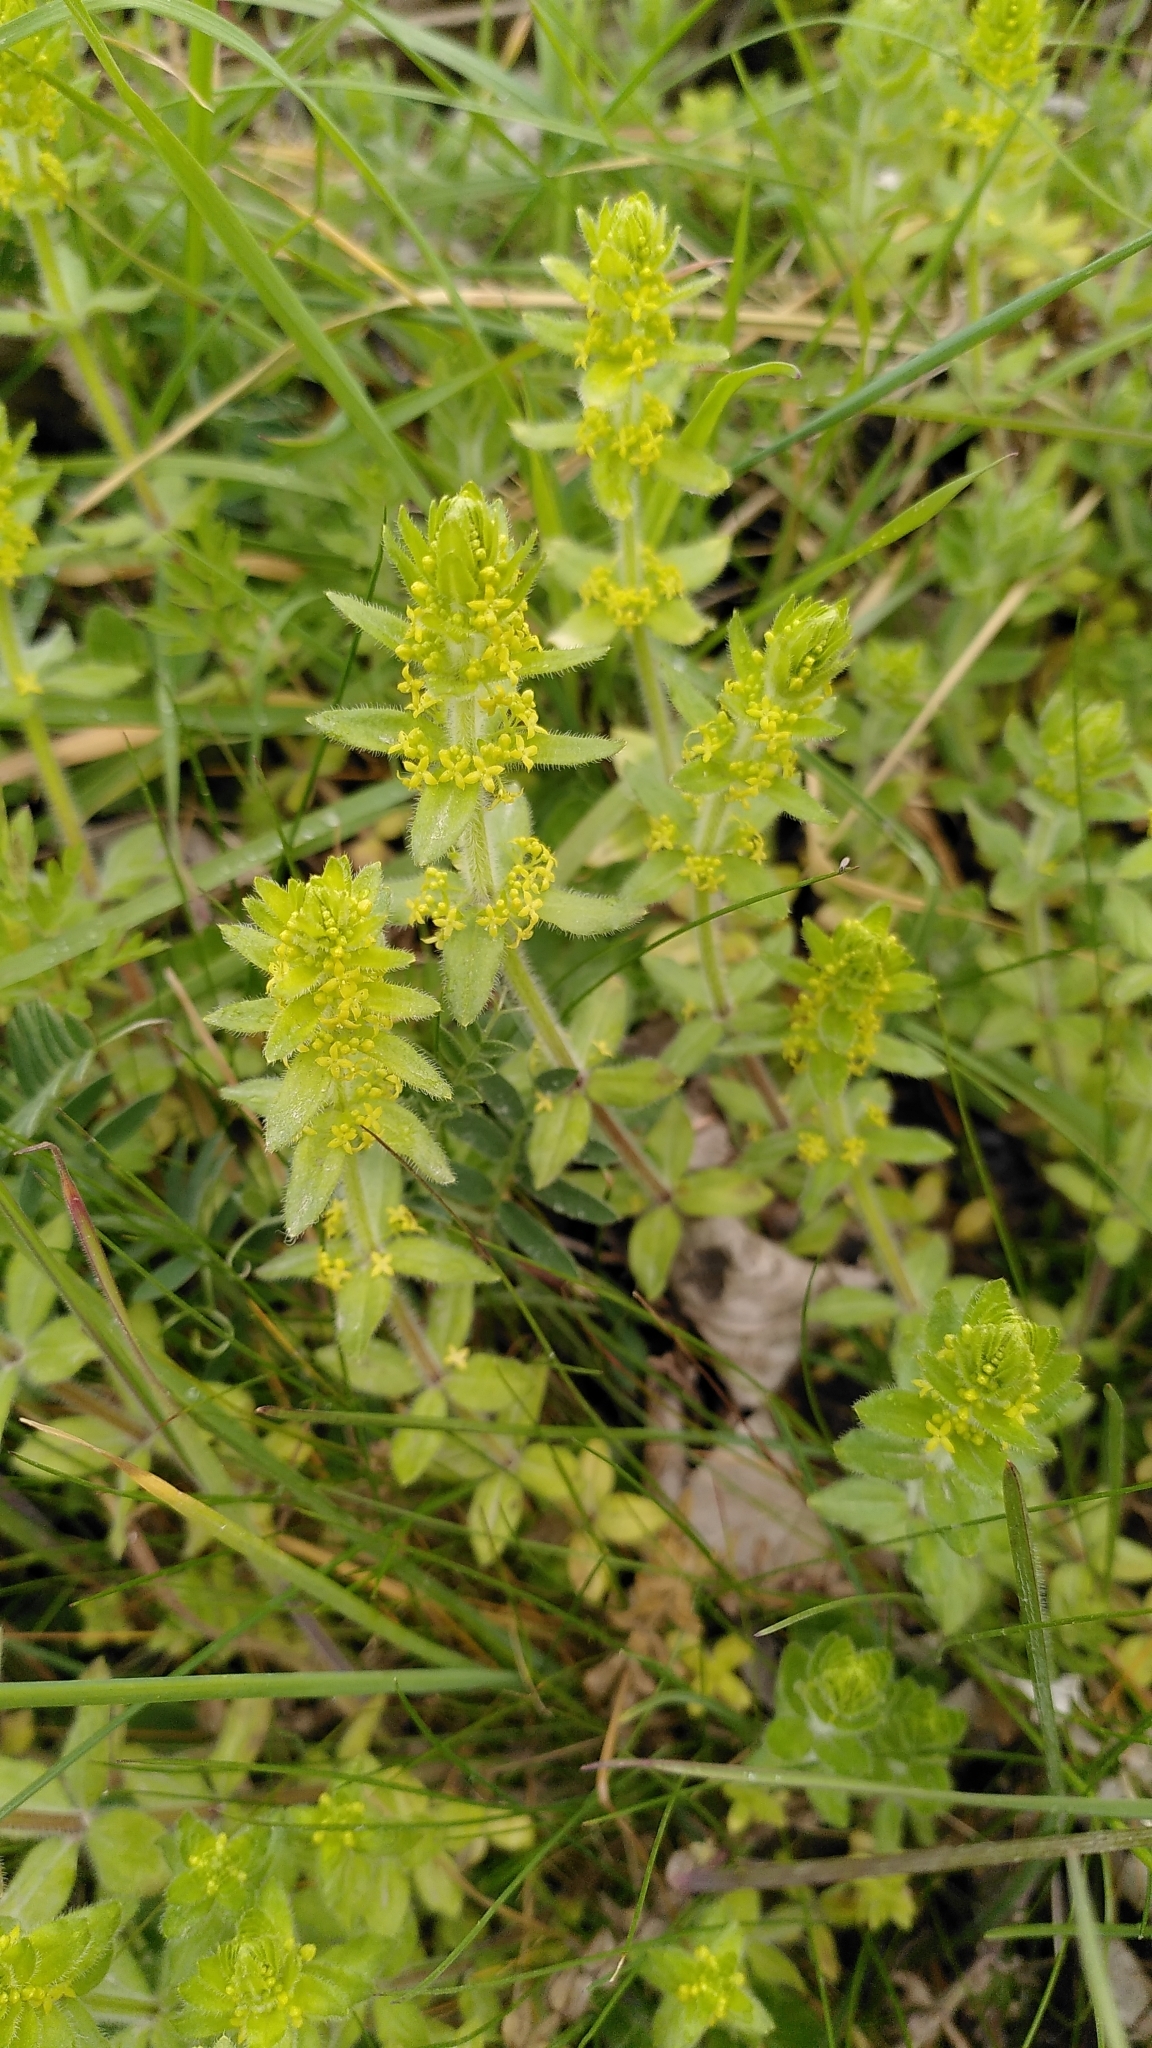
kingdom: Plantae
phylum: Tracheophyta
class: Magnoliopsida
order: Gentianales
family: Rubiaceae
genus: Cruciata
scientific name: Cruciata laevipes
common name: Crosswort
